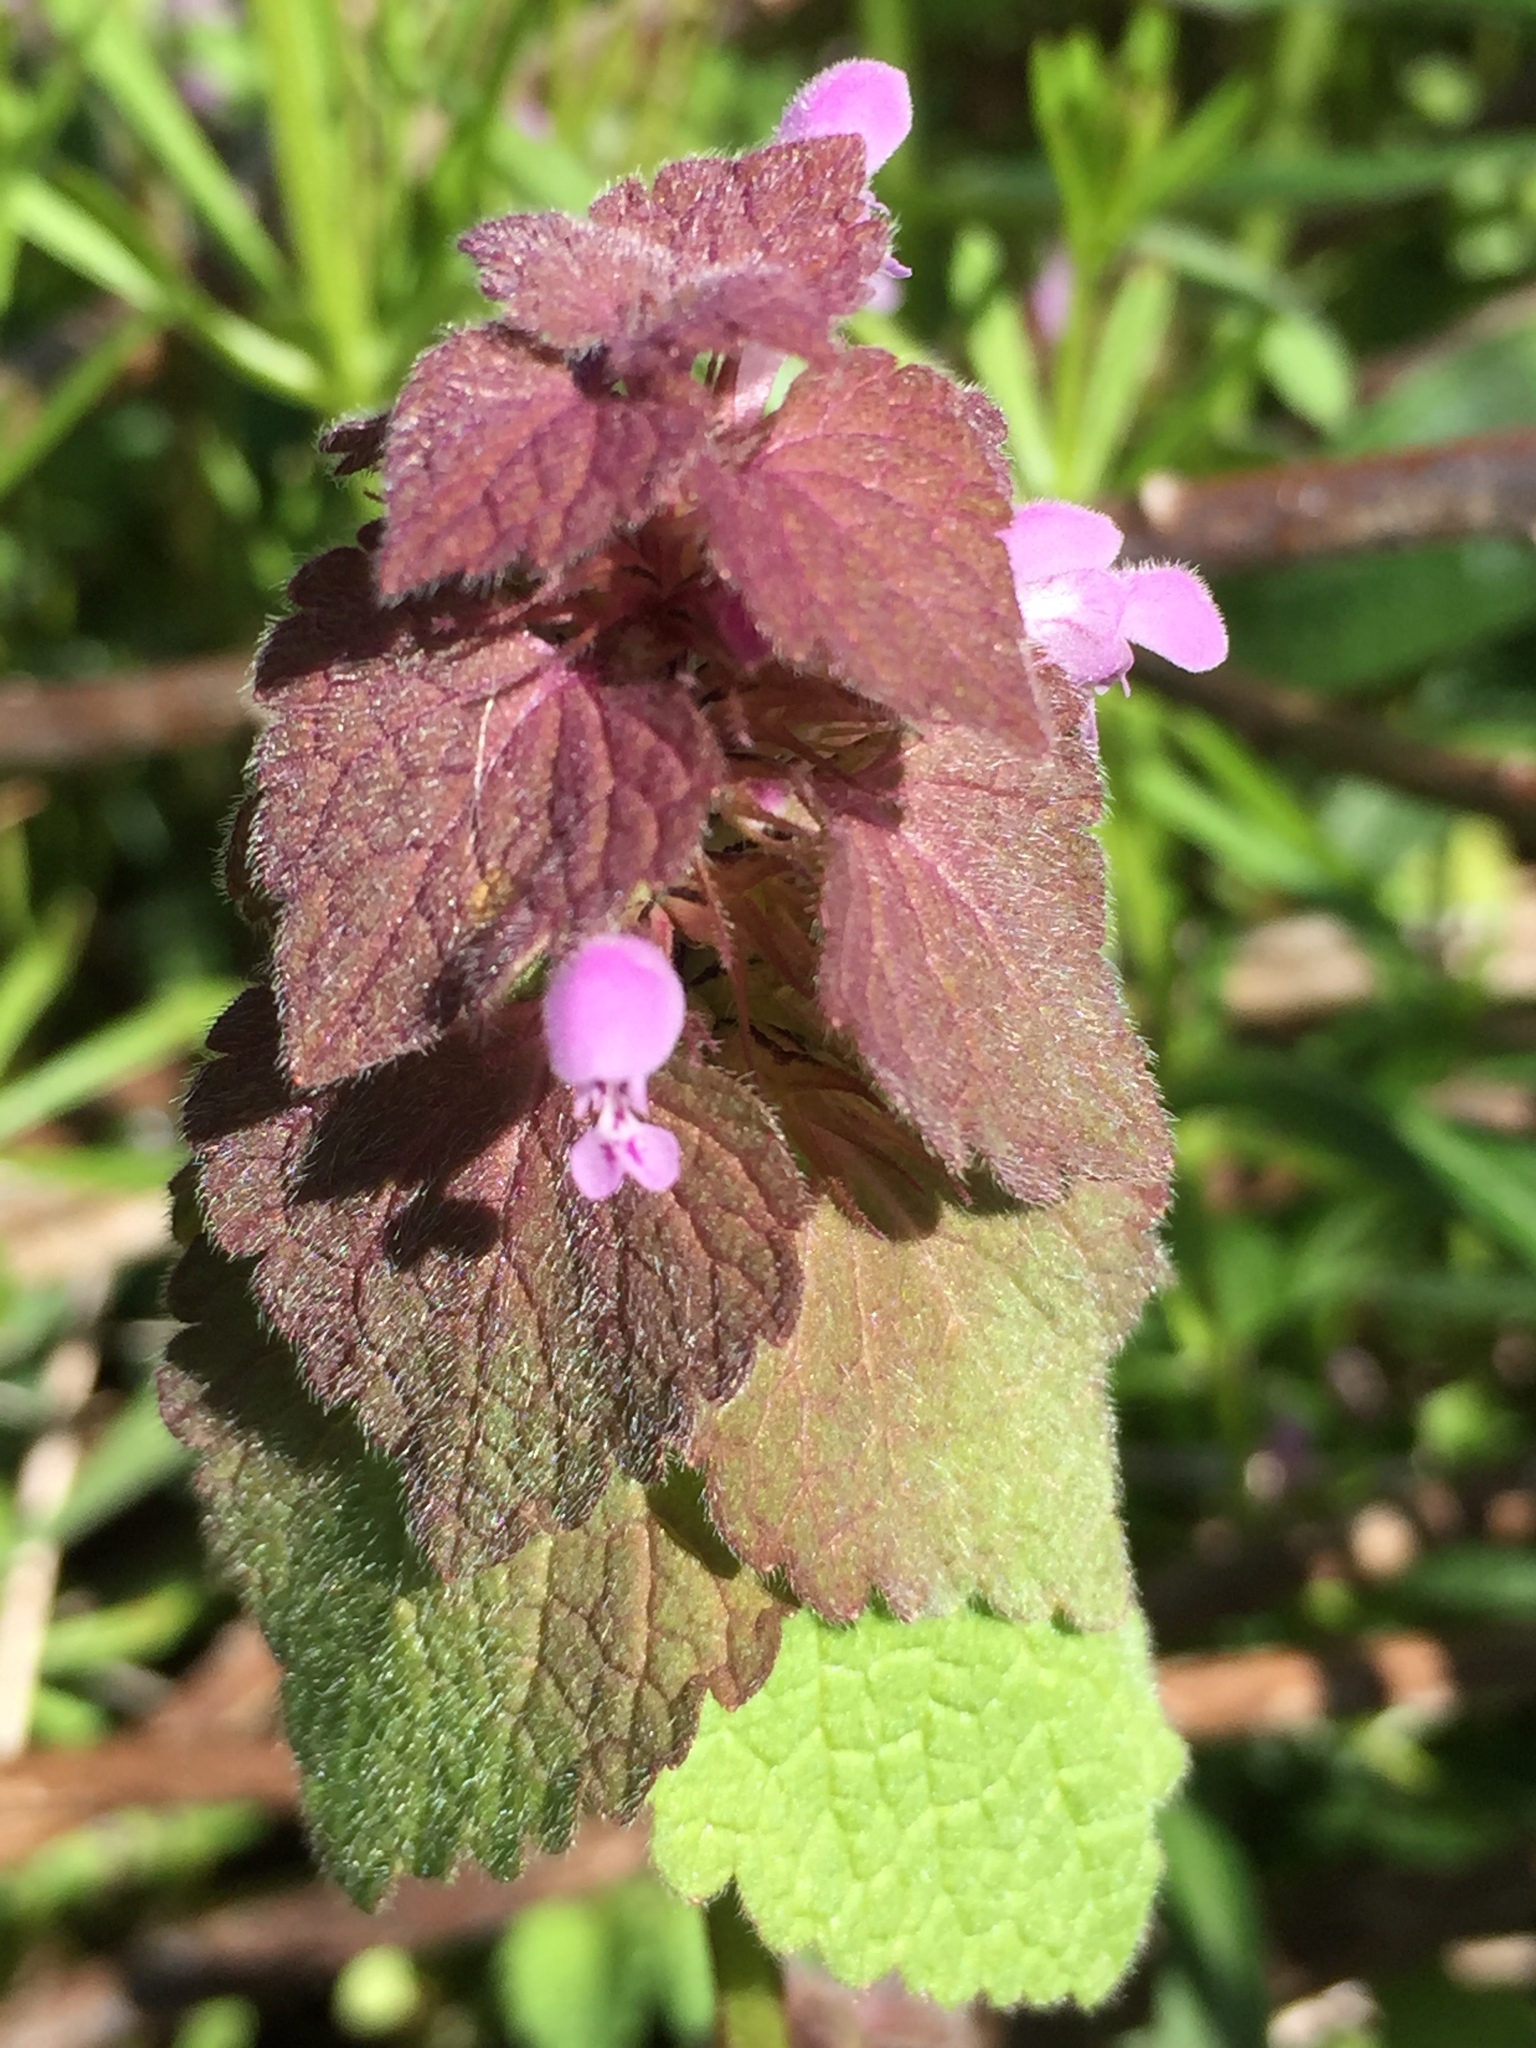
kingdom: Plantae
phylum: Tracheophyta
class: Magnoliopsida
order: Lamiales
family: Lamiaceae
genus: Lamium
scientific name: Lamium purpureum
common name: Red dead-nettle
